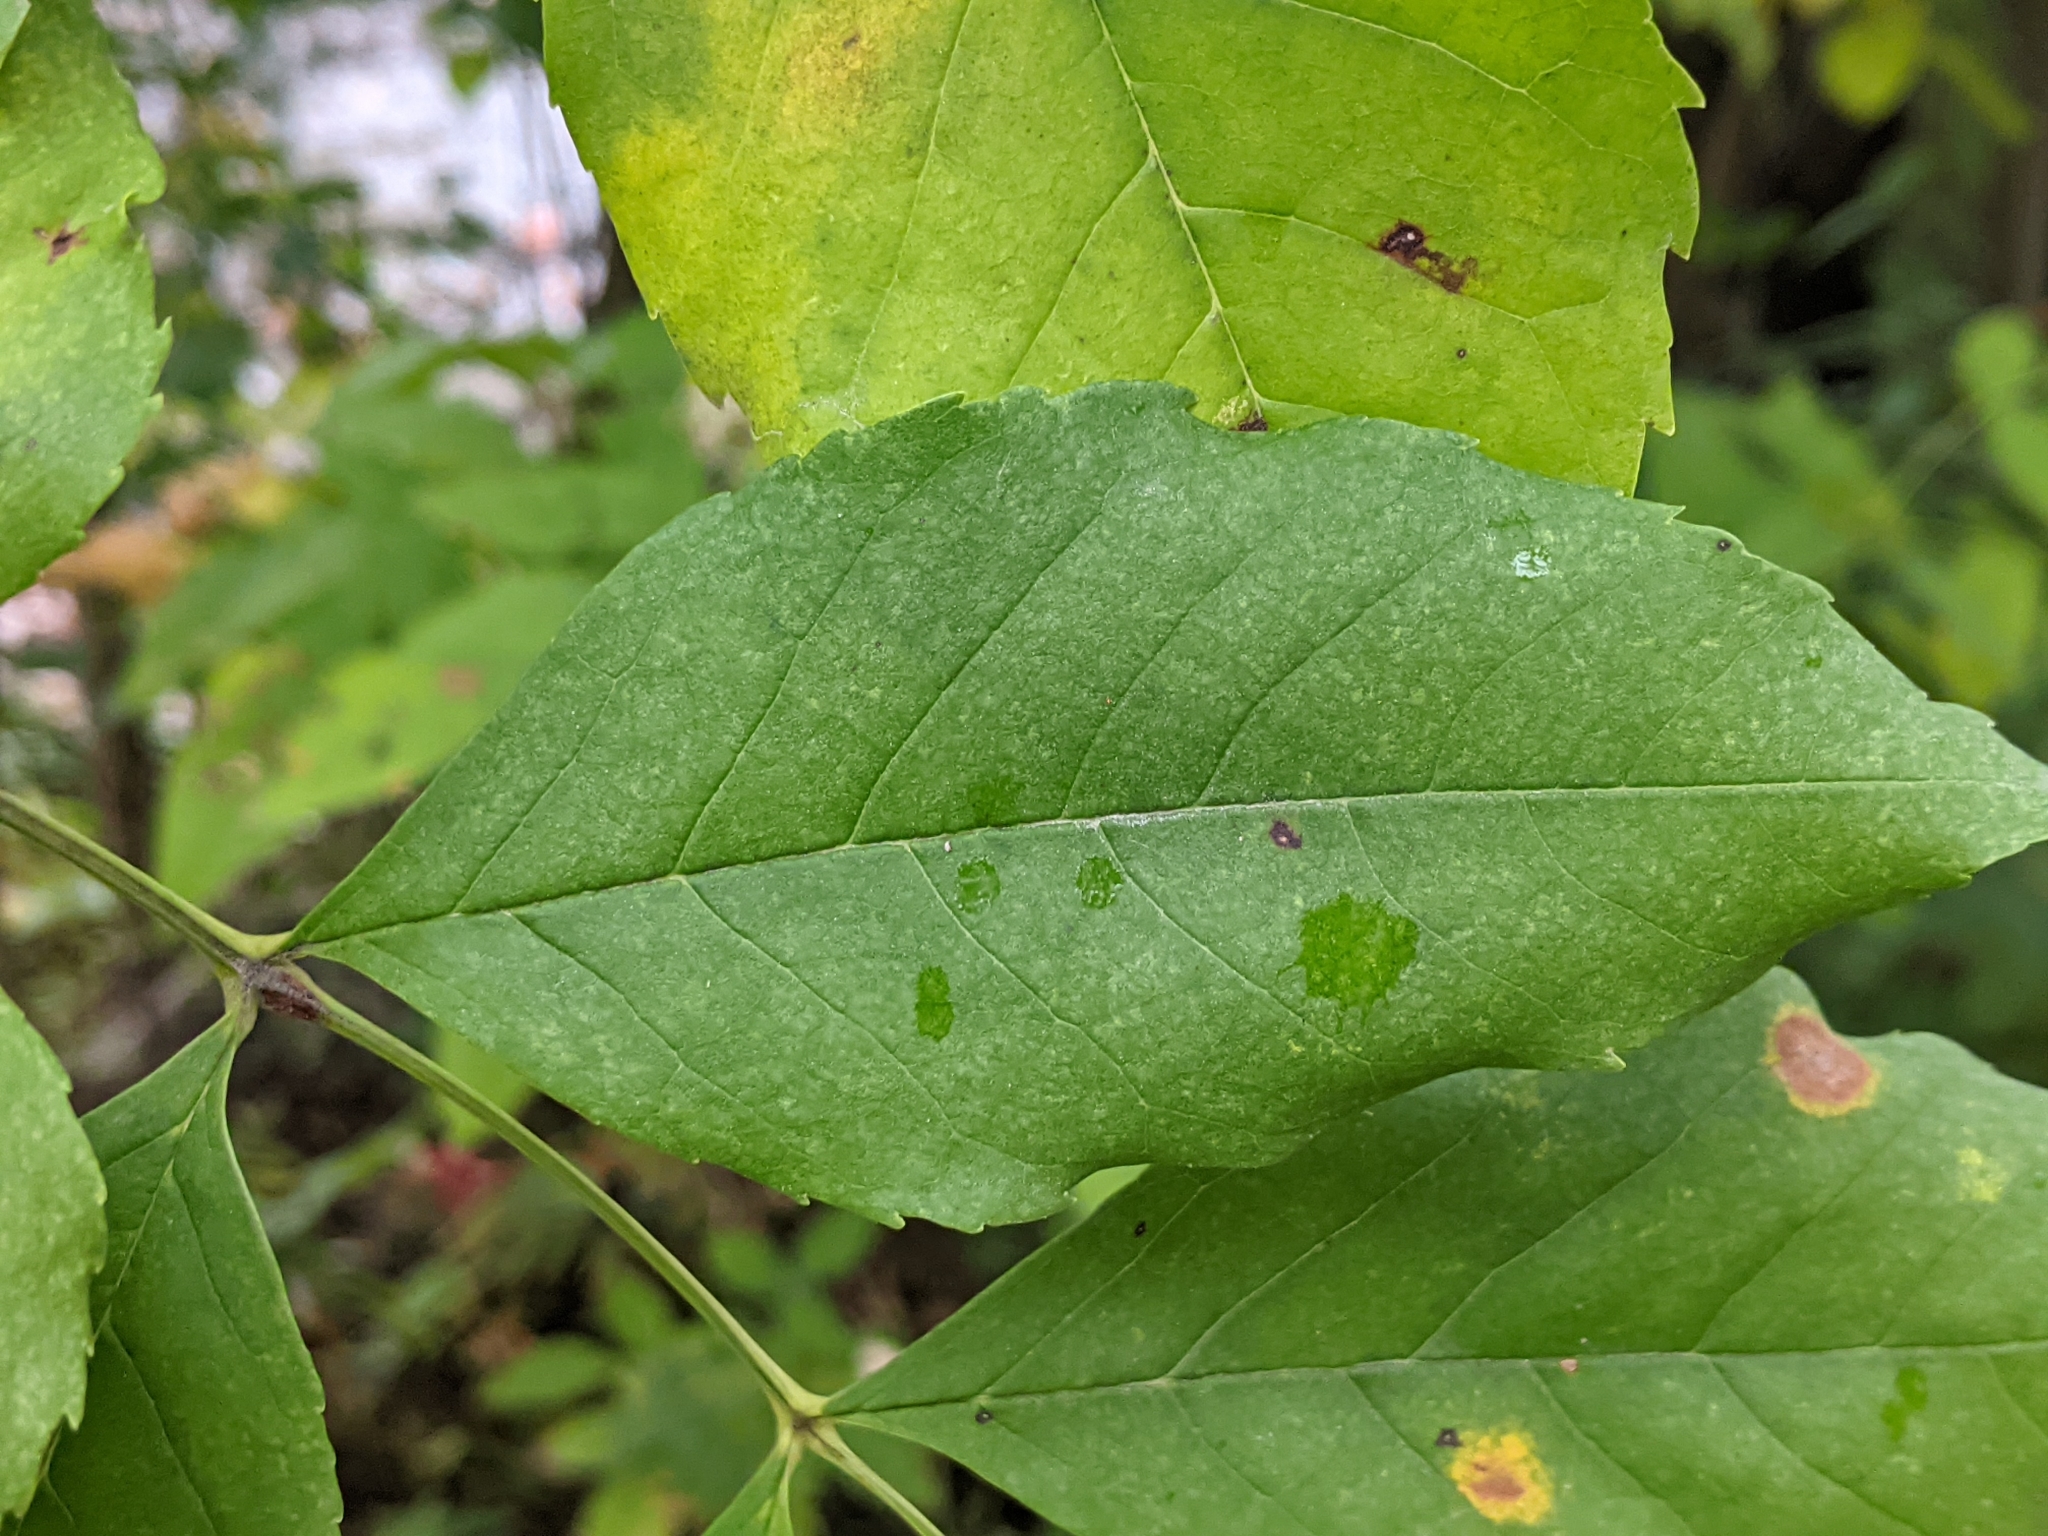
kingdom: Plantae
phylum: Tracheophyta
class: Magnoliopsida
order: Lamiales
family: Oleaceae
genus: Fraxinus
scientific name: Fraxinus pennsylvanica
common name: Green ash
